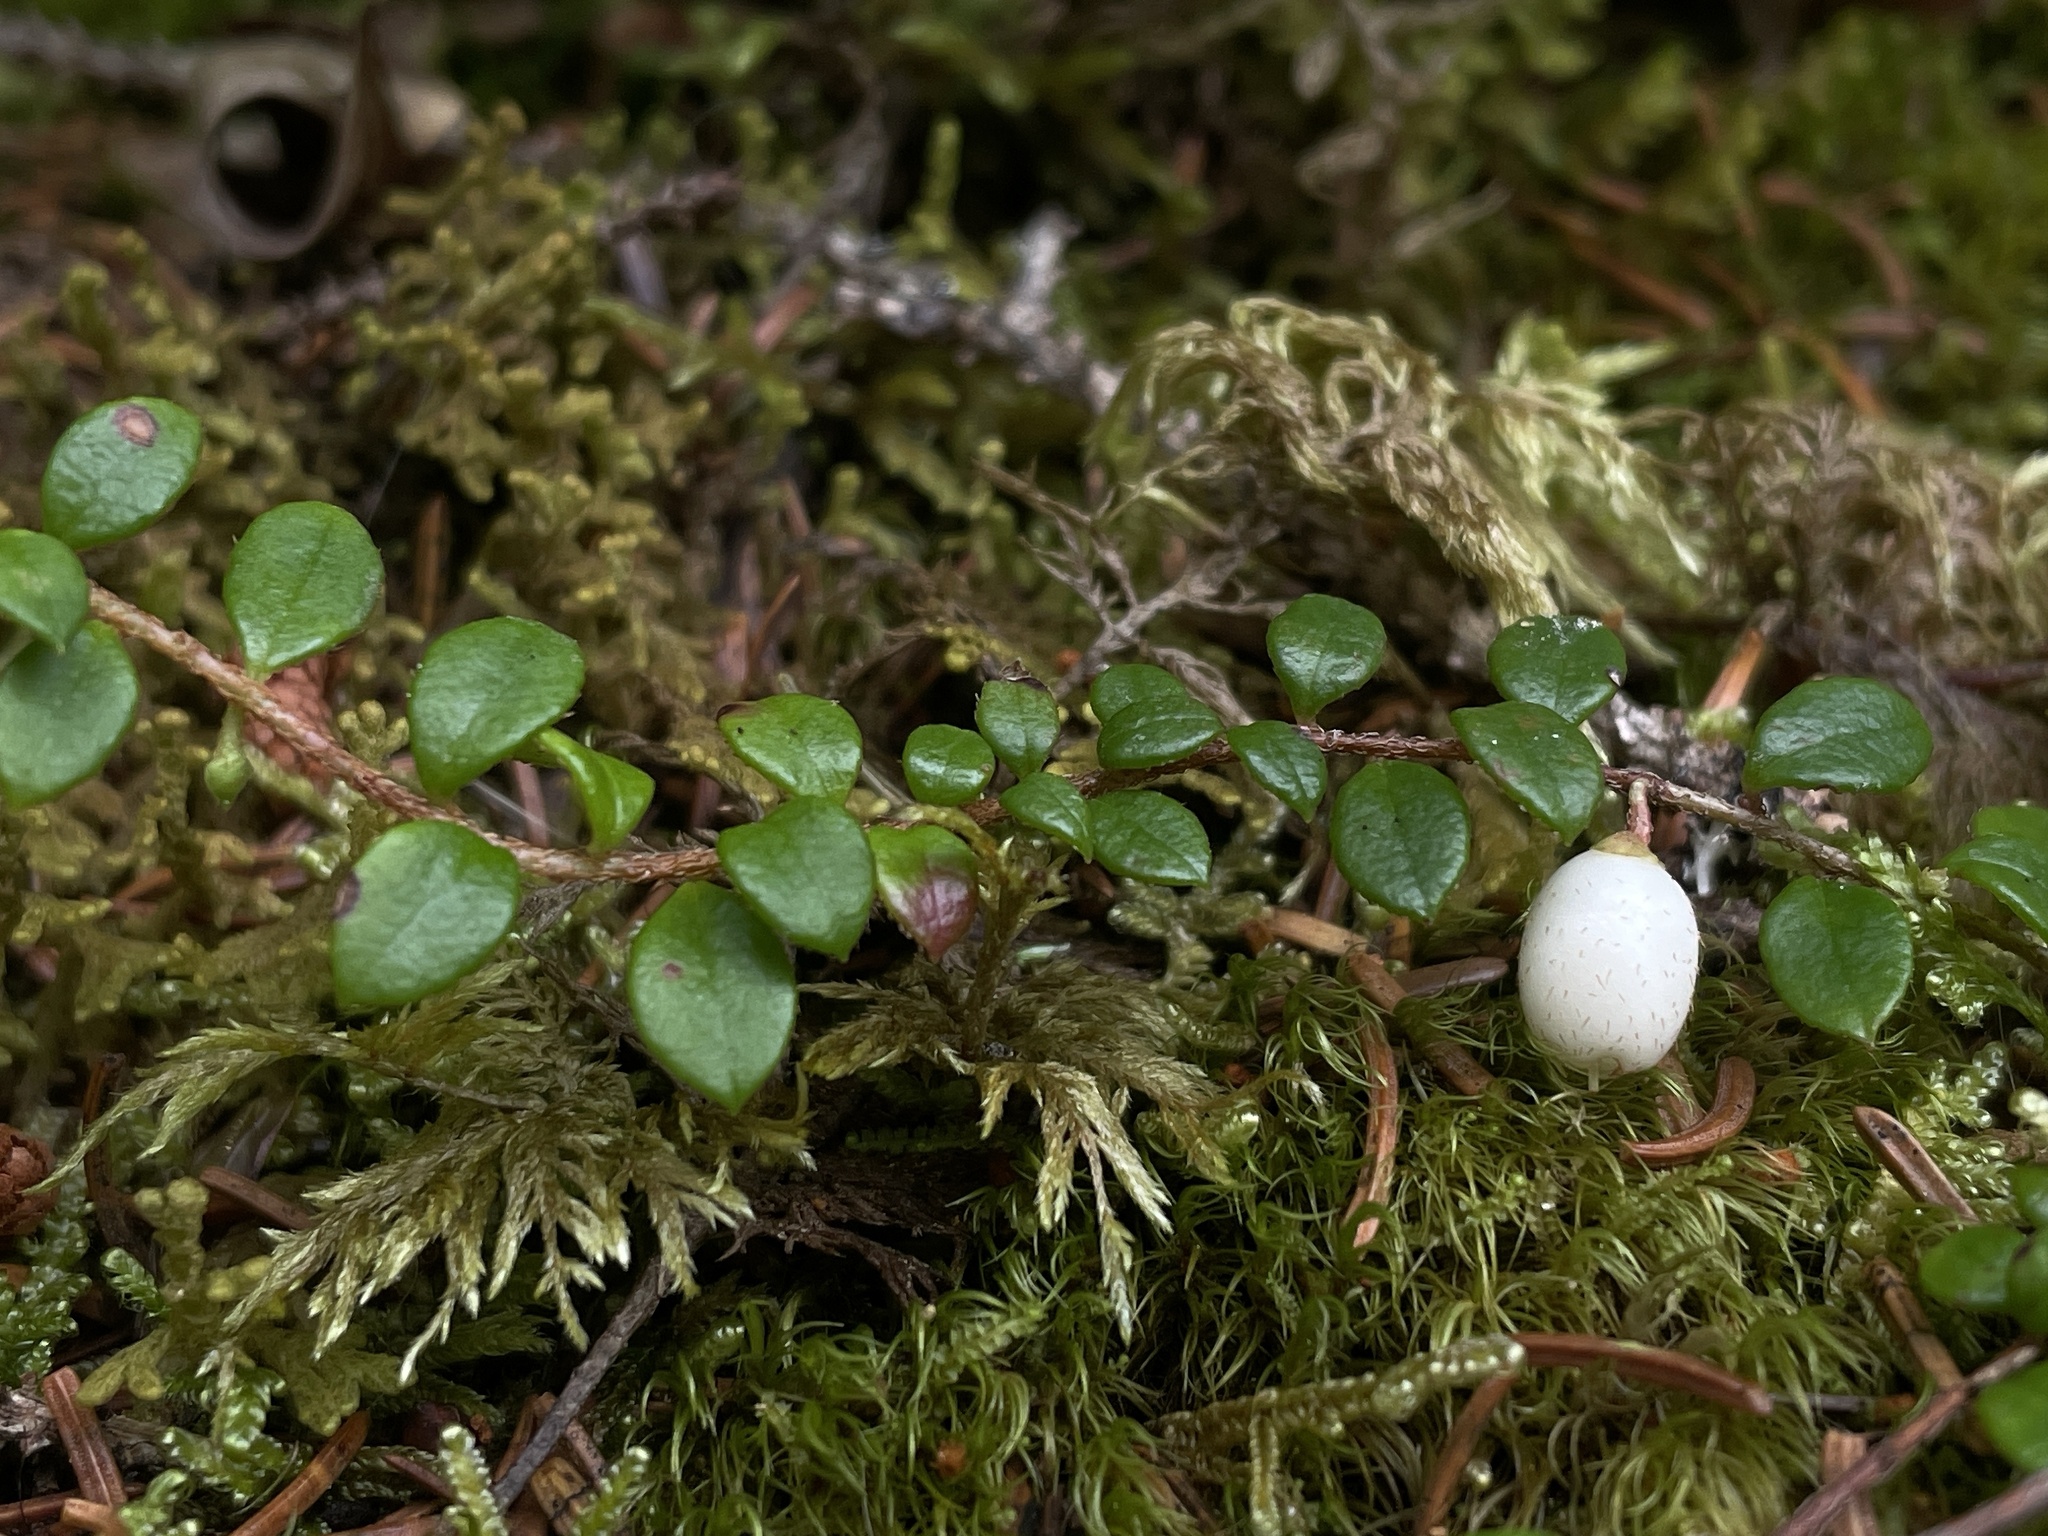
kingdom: Plantae
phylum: Tracheophyta
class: Magnoliopsida
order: Ericales
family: Ericaceae
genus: Gaultheria
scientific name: Gaultheria hispidula
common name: Cancer wintergreen
